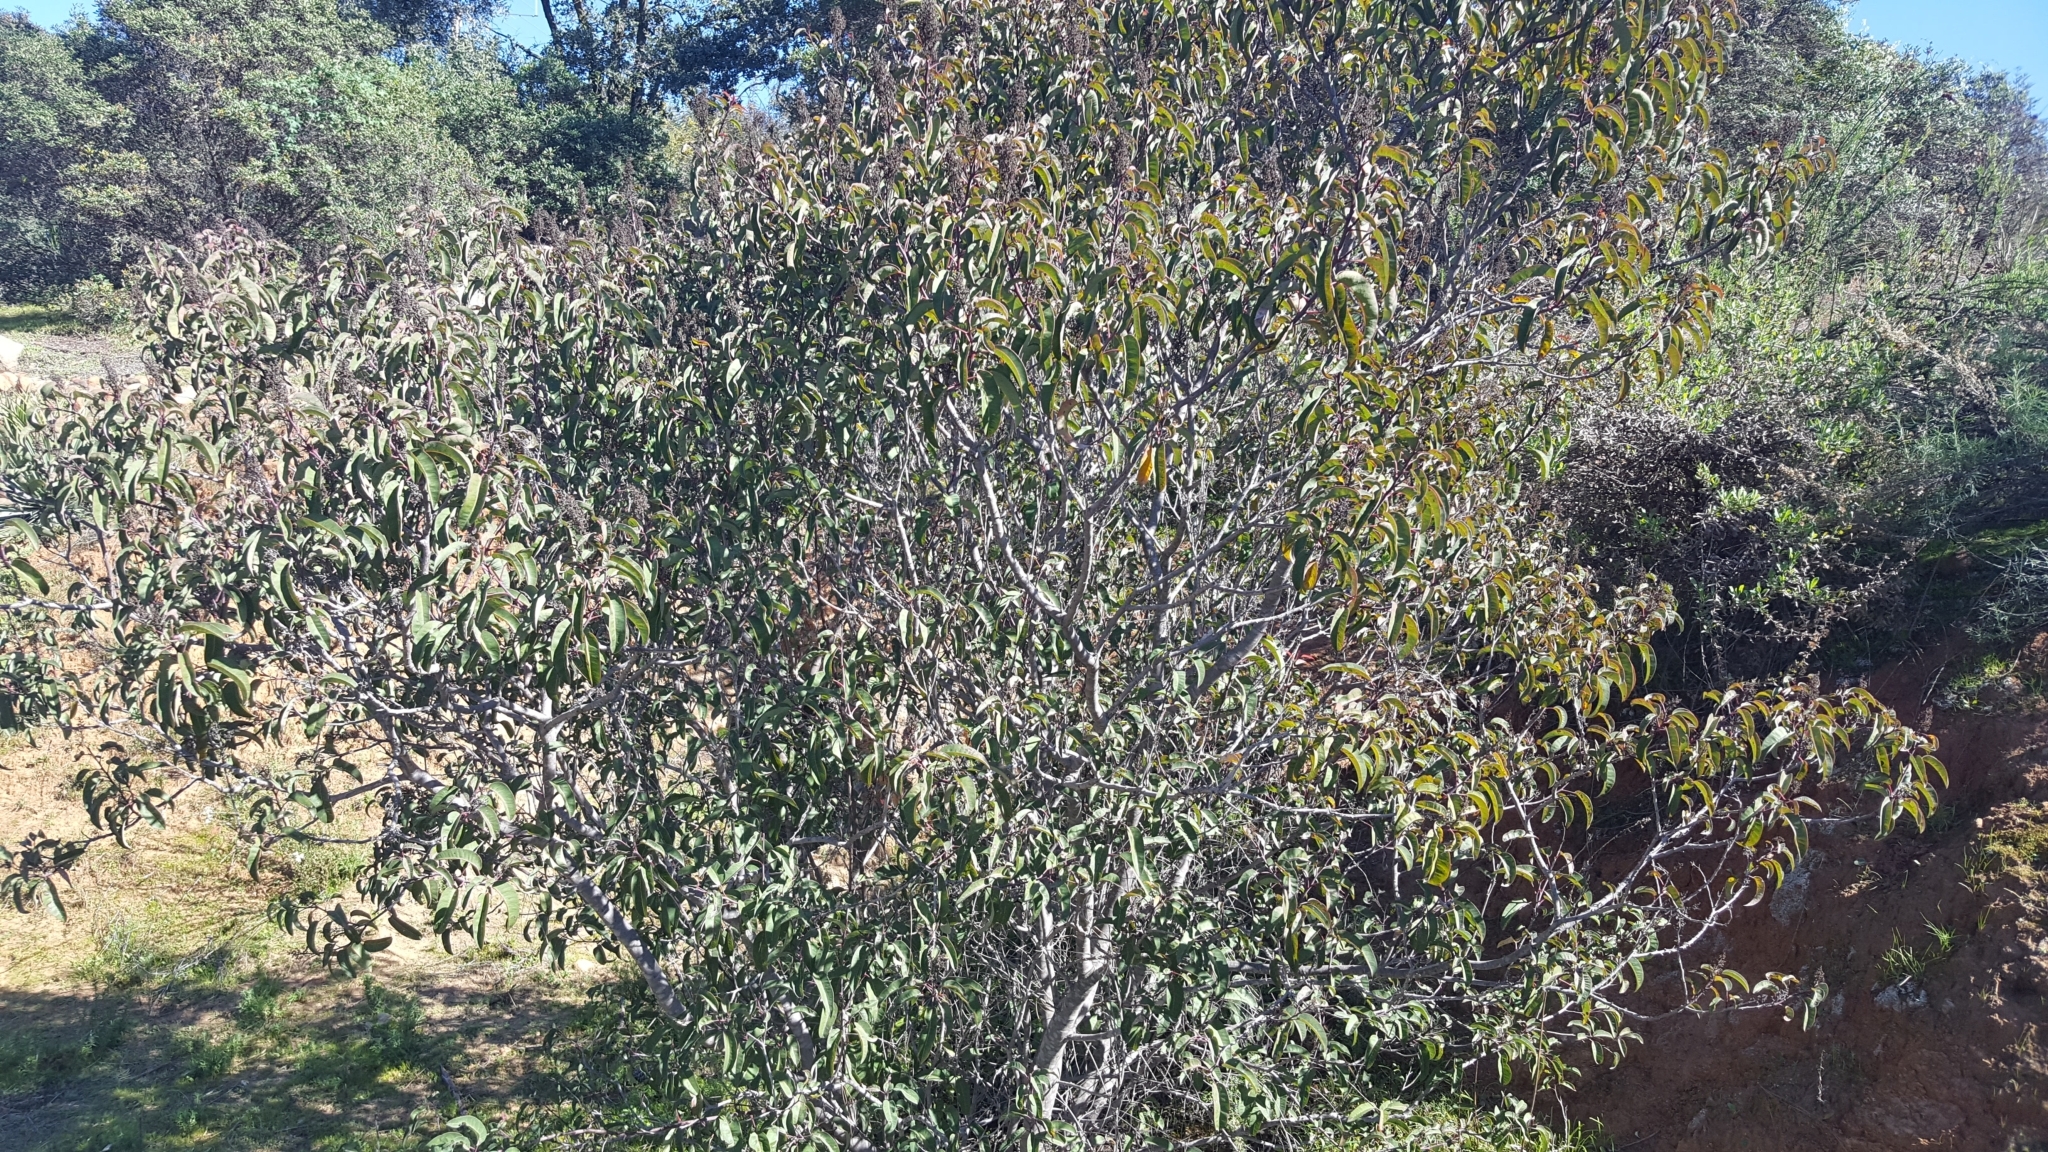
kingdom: Plantae
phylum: Tracheophyta
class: Magnoliopsida
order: Sapindales
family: Anacardiaceae
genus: Malosma
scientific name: Malosma laurina
